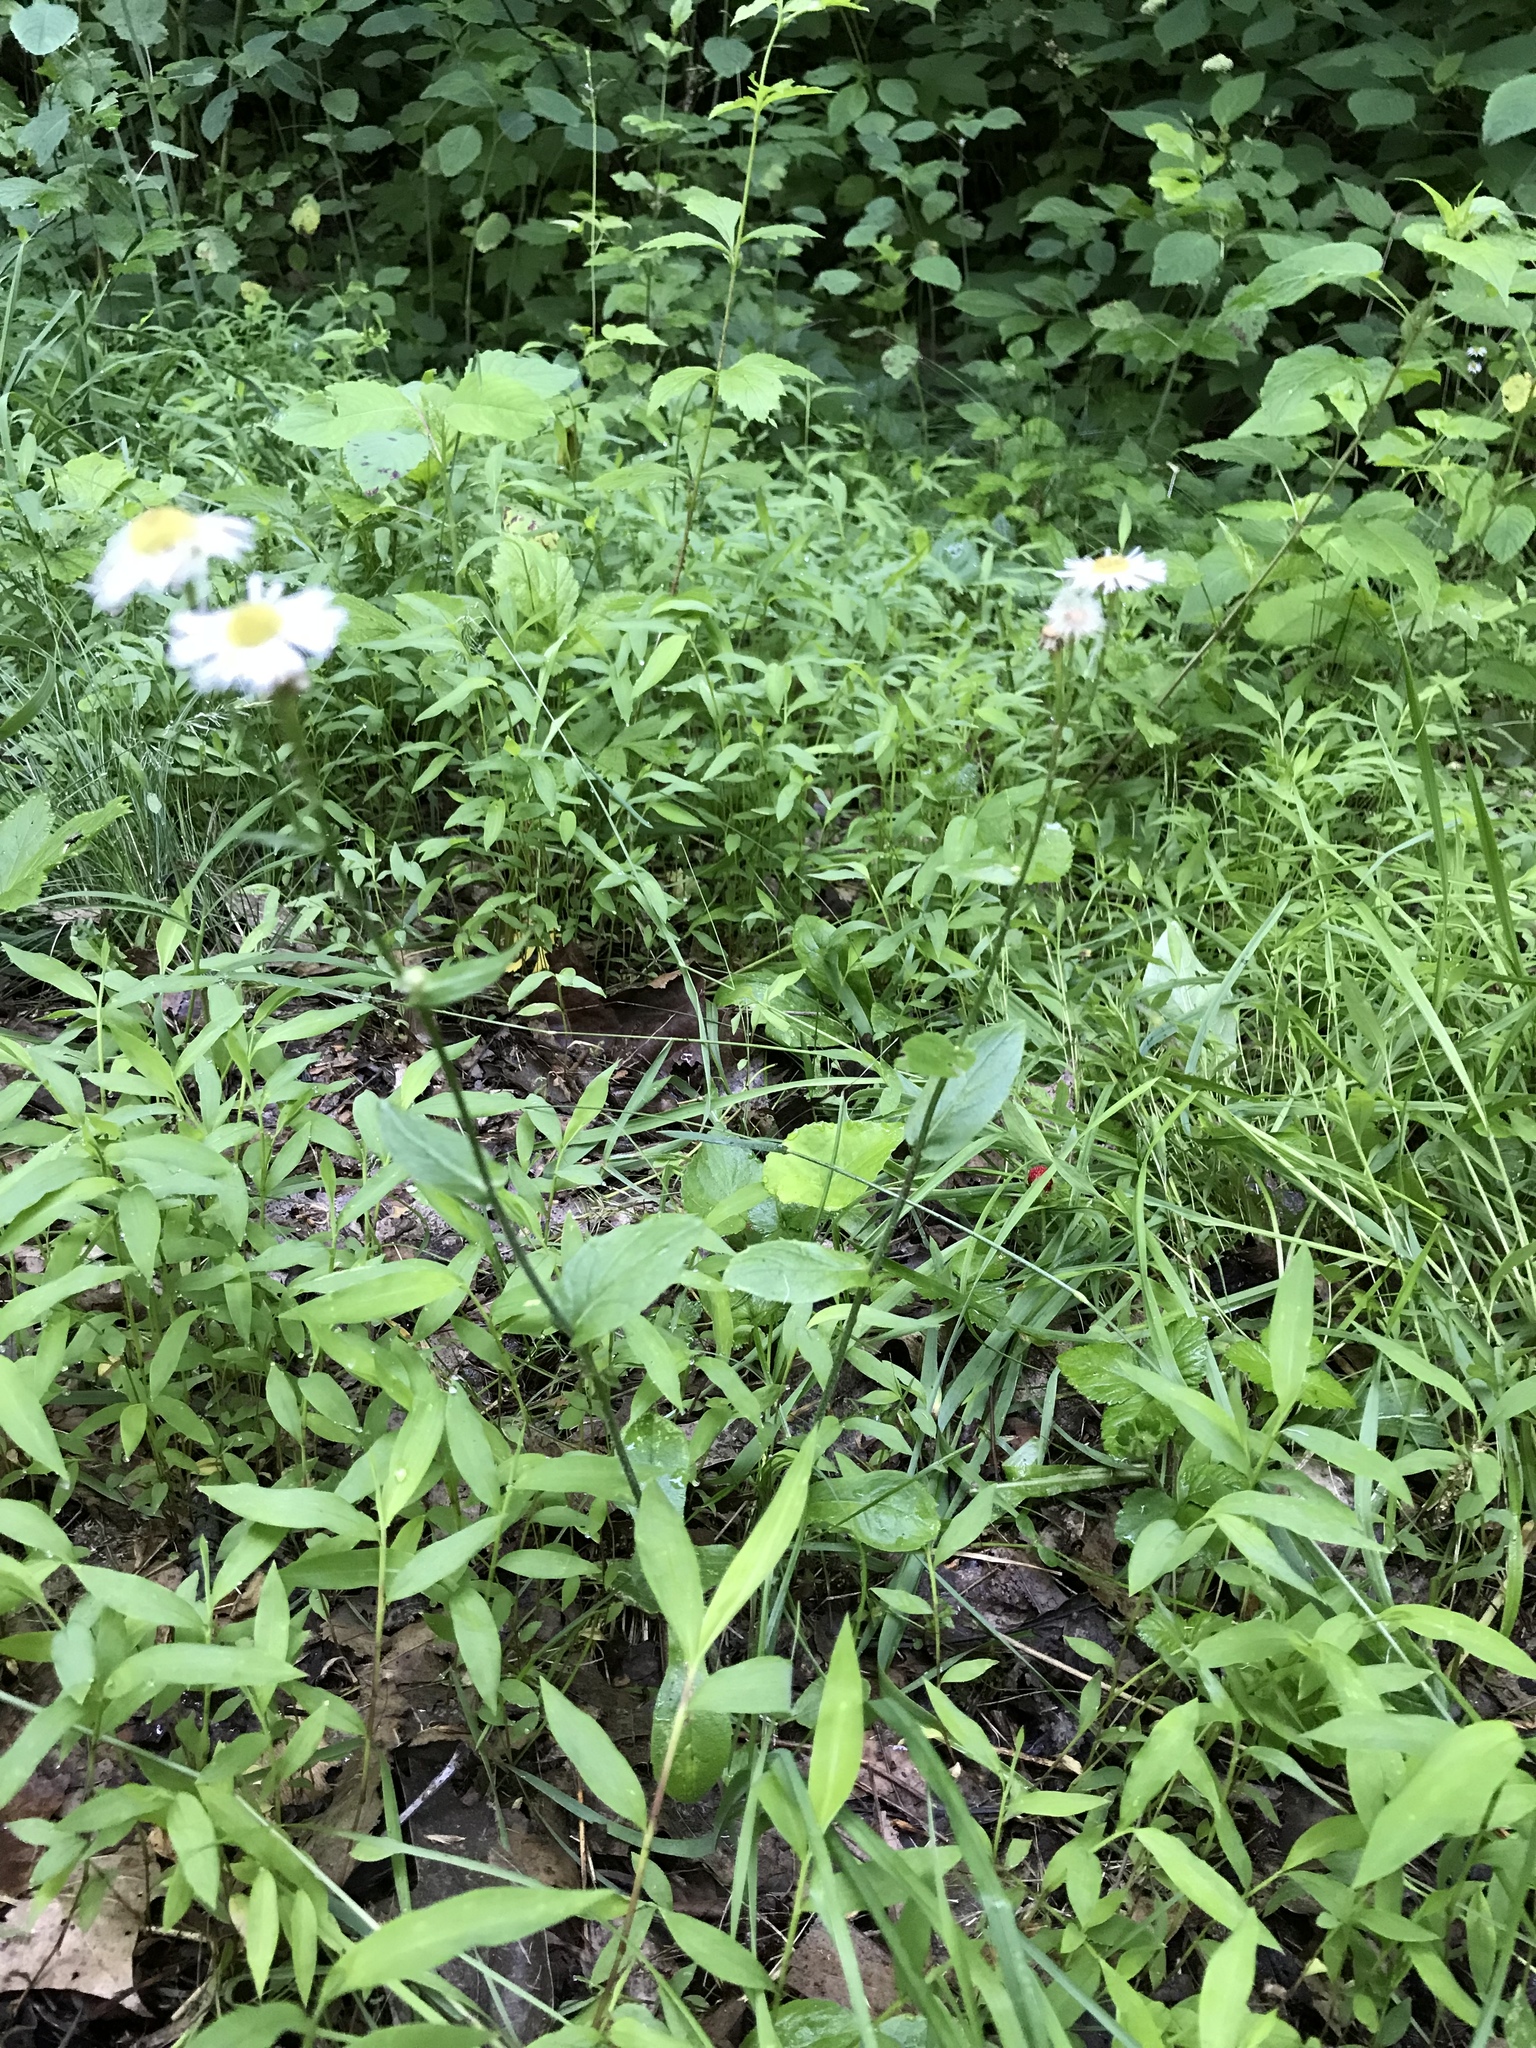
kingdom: Plantae
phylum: Tracheophyta
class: Magnoliopsida
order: Asterales
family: Asteraceae
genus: Erigeron
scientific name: Erigeron philadelphicus
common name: Robin's-plantain
